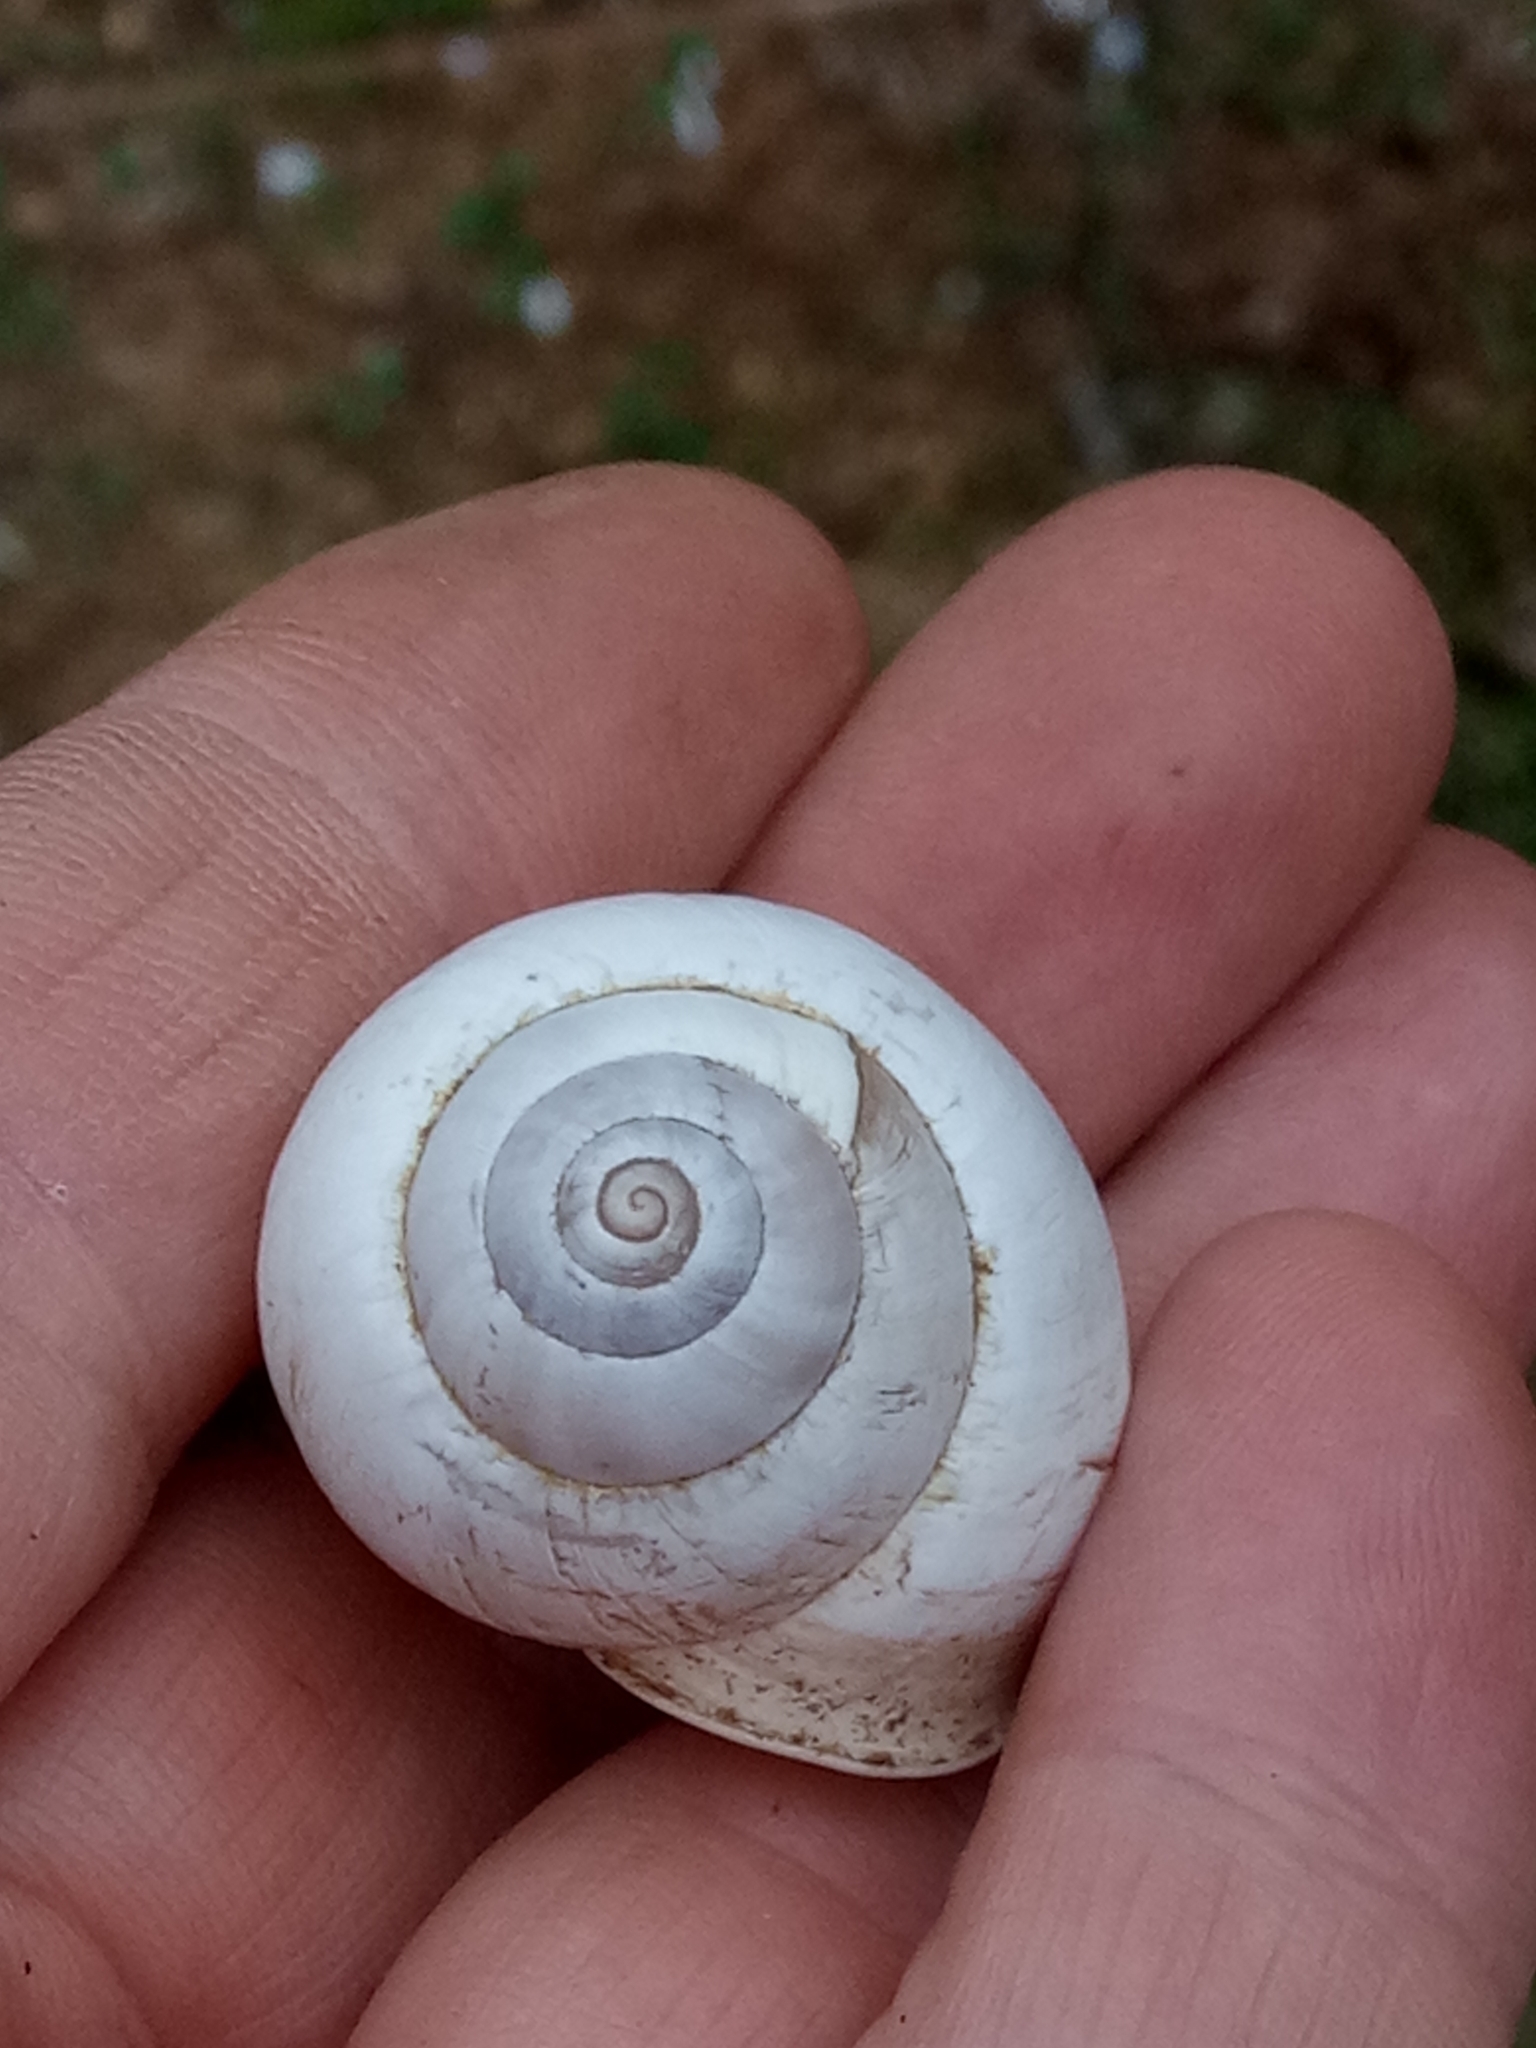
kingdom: Animalia
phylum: Mollusca
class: Gastropoda
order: Stylommatophora
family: Helicidae
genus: Eobania
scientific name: Eobania constantina
